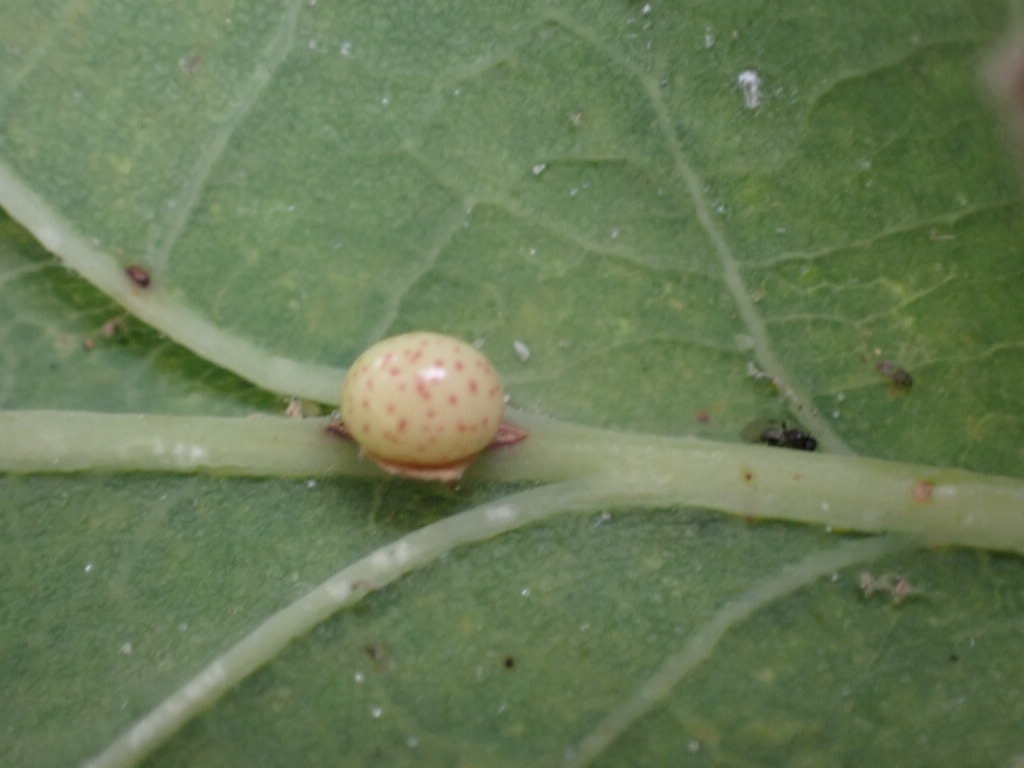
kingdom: Animalia
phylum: Arthropoda
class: Insecta
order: Hymenoptera
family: Cynipidae
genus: Neuroterus
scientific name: Neuroterus anthracinus
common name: Oyster gall
